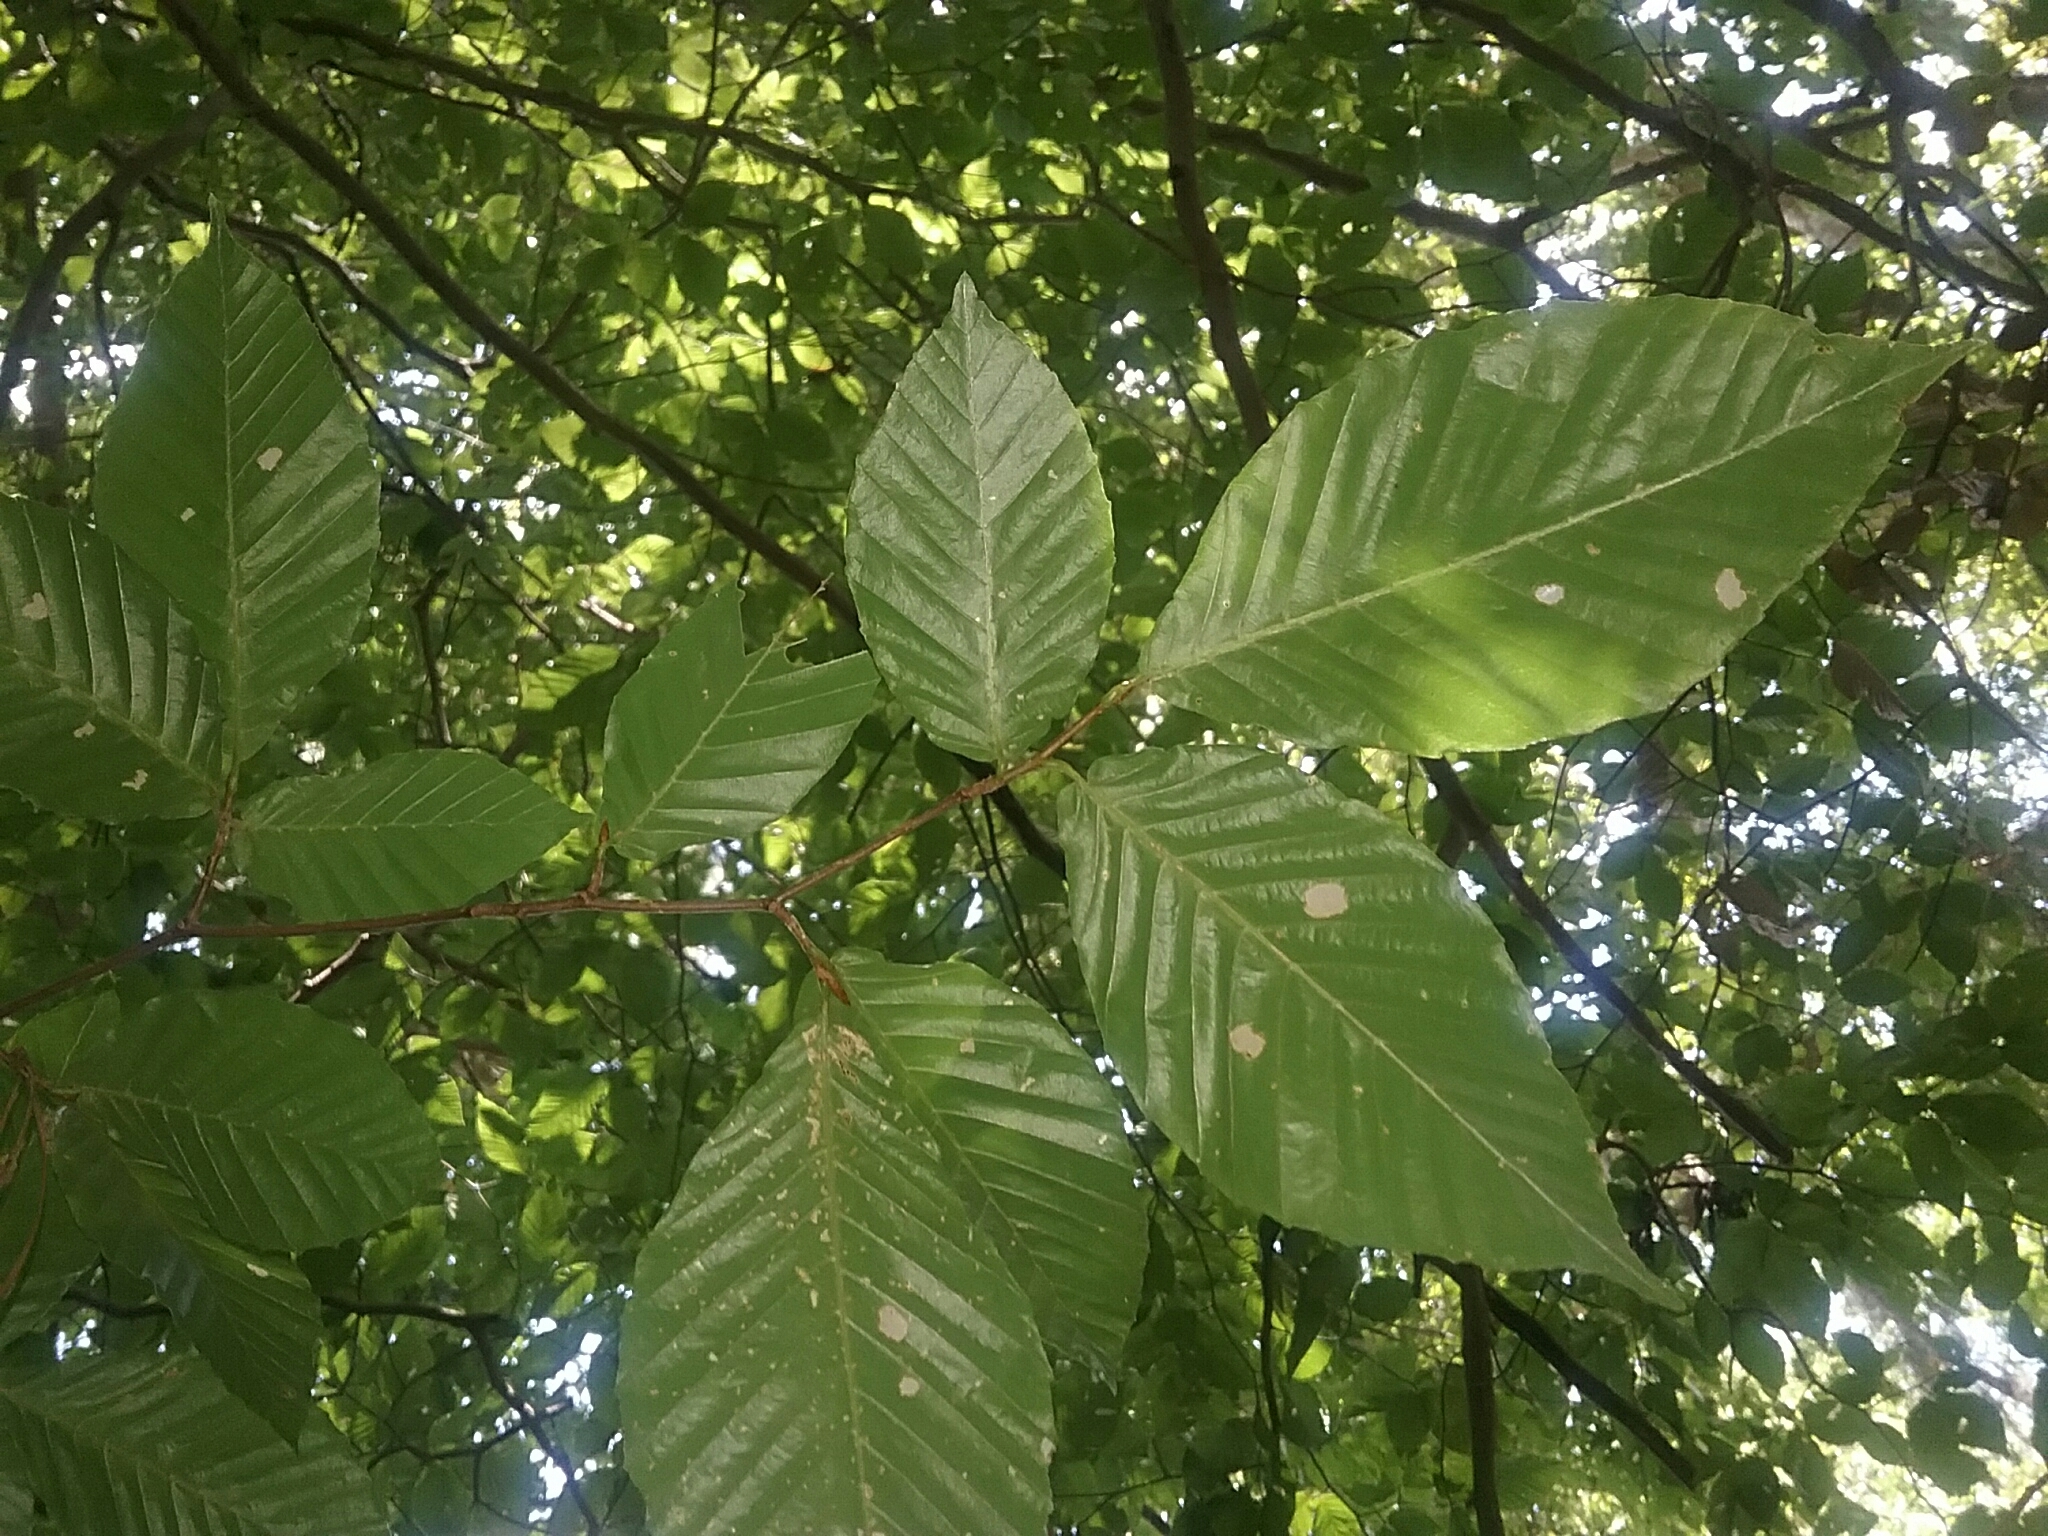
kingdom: Plantae
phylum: Tracheophyta
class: Magnoliopsida
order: Fagales
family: Fagaceae
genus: Fagus
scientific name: Fagus grandifolia
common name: American beech
